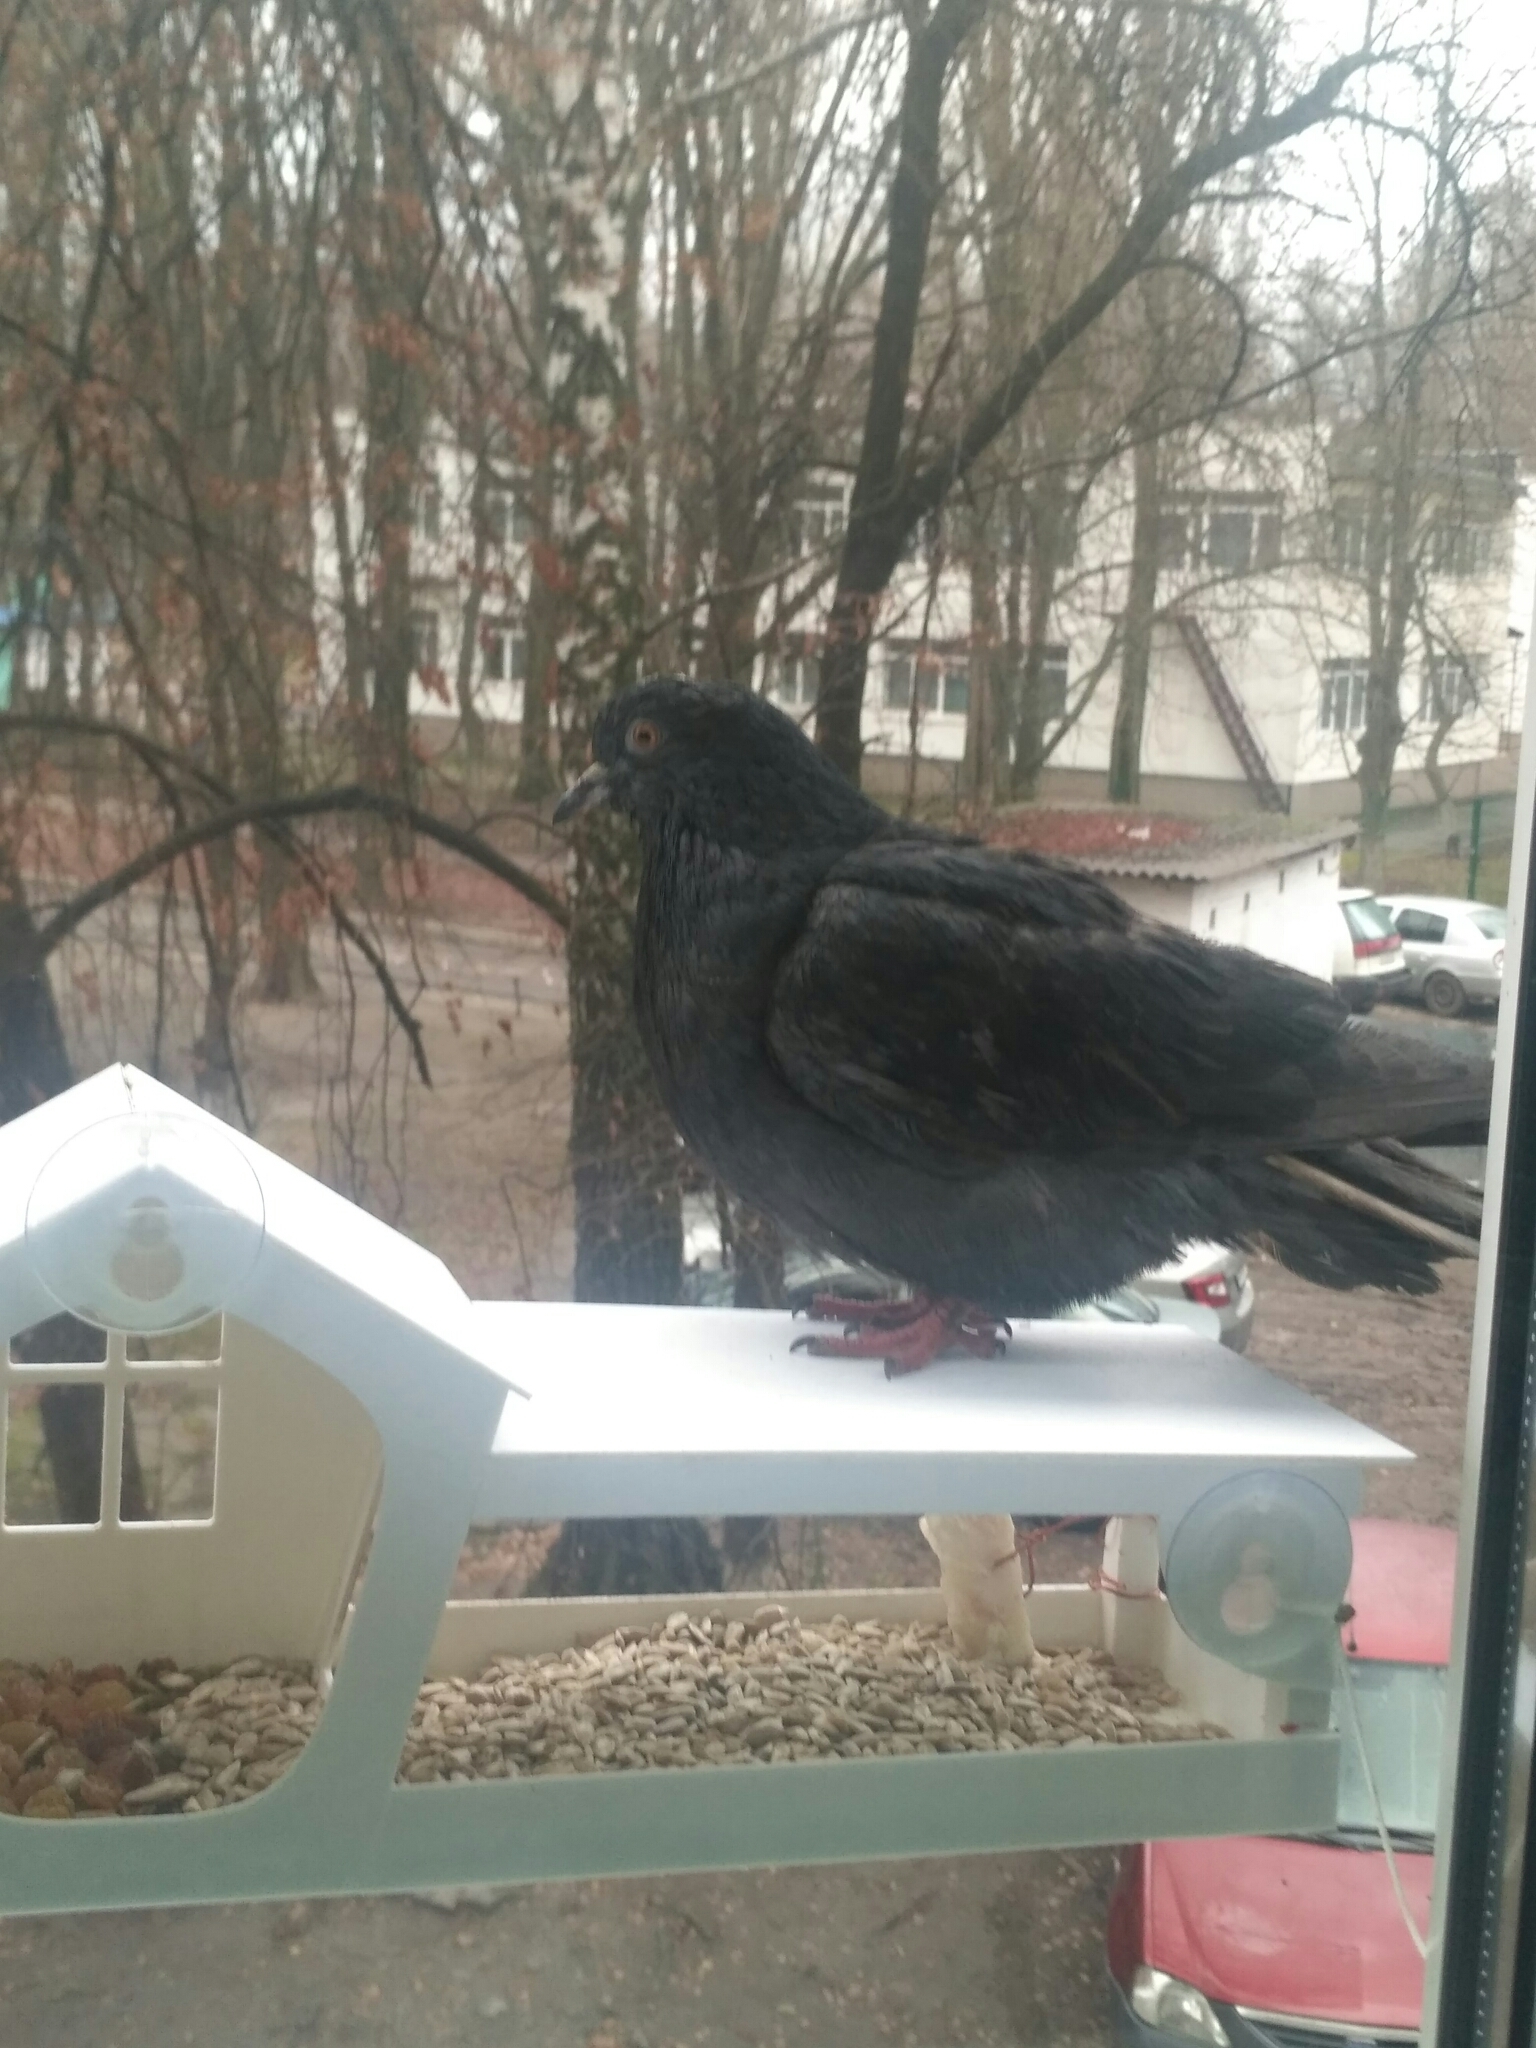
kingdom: Animalia
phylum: Chordata
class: Aves
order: Columbiformes
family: Columbidae
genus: Columba
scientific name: Columba livia
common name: Rock pigeon
